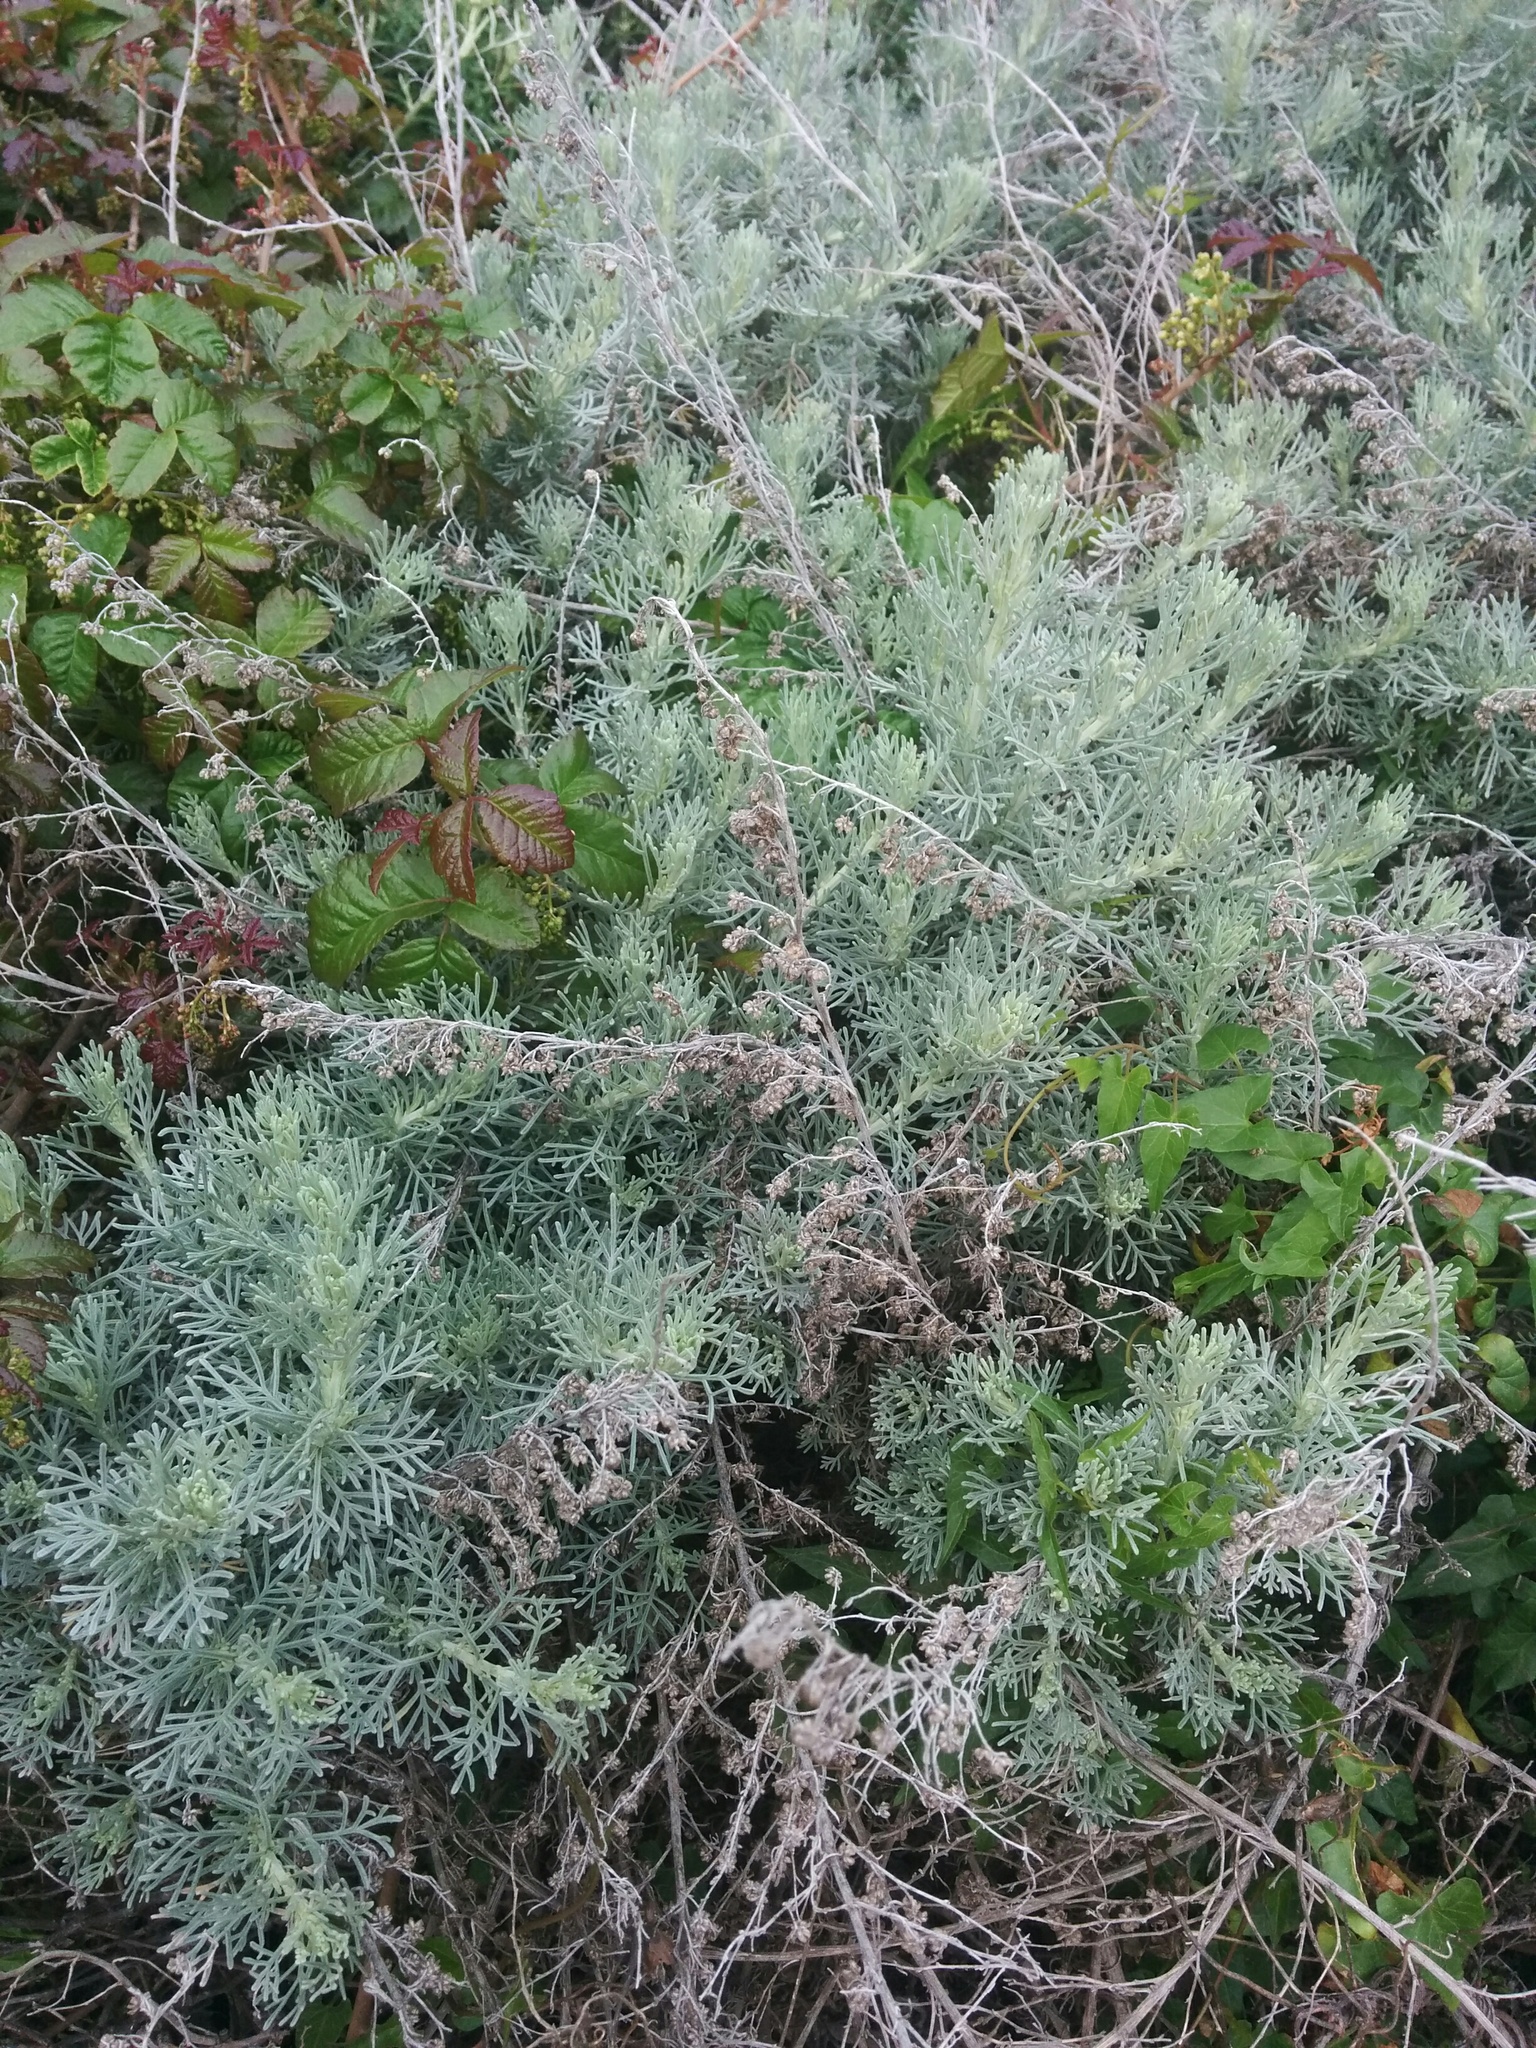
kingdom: Plantae
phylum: Tracheophyta
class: Magnoliopsida
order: Asterales
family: Asteraceae
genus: Artemisia
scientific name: Artemisia californica
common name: California sagebrush
